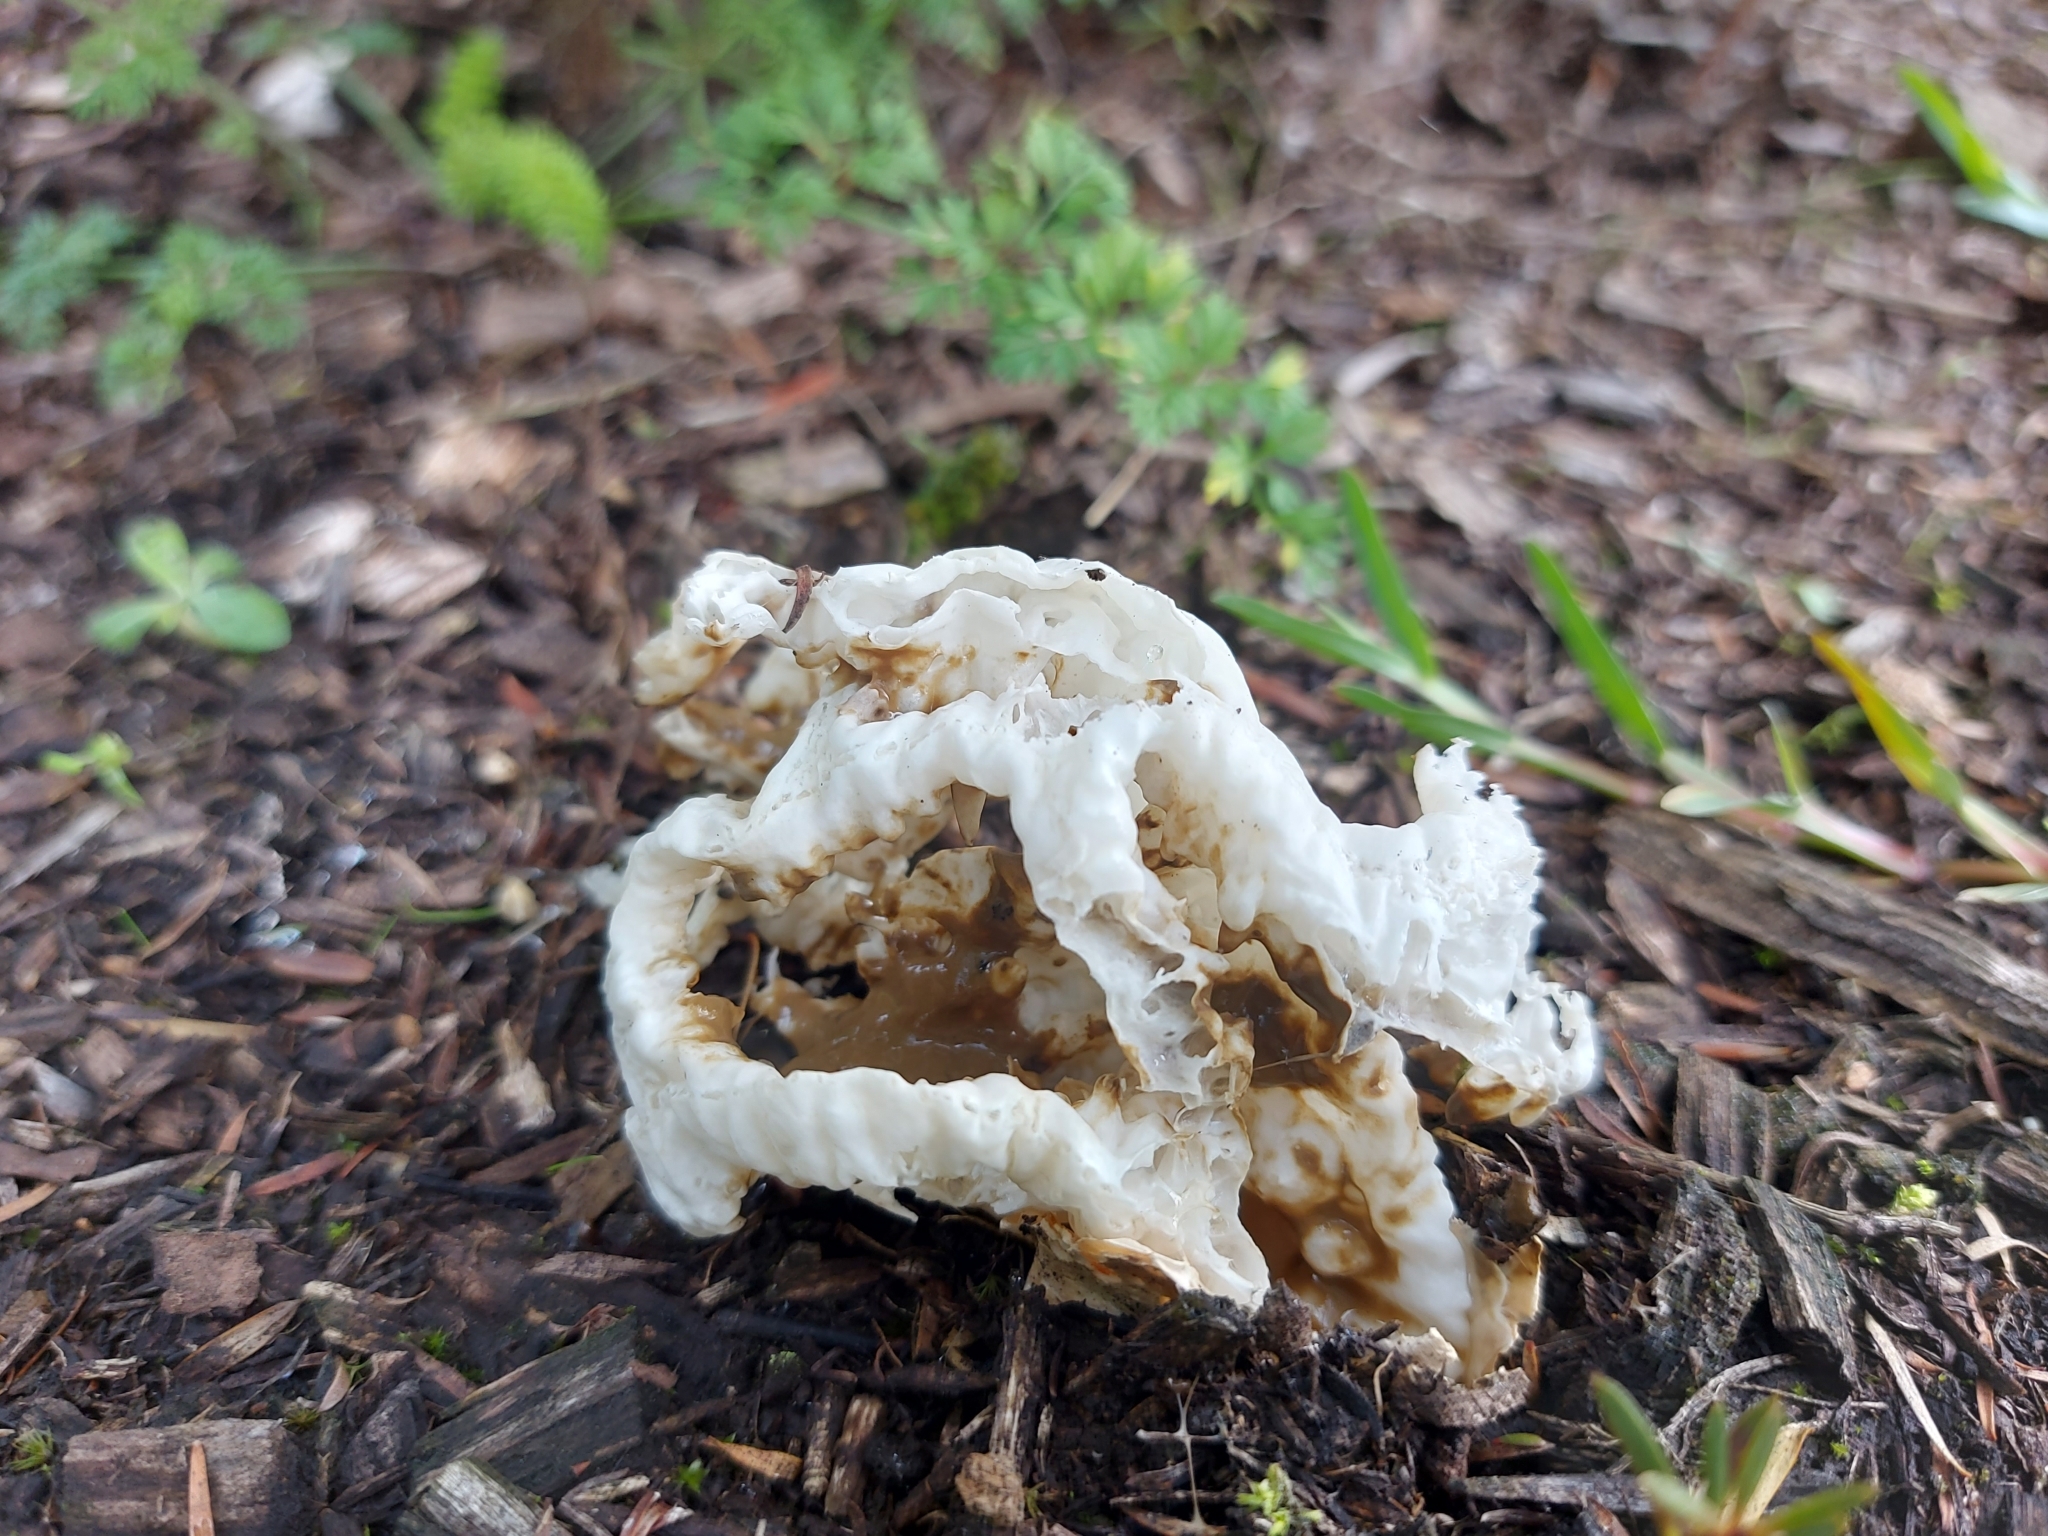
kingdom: Fungi
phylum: Basidiomycota
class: Agaricomycetes
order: Phallales
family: Phallaceae
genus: Ileodictyon
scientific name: Ileodictyon cibarium
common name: Basket fungus
